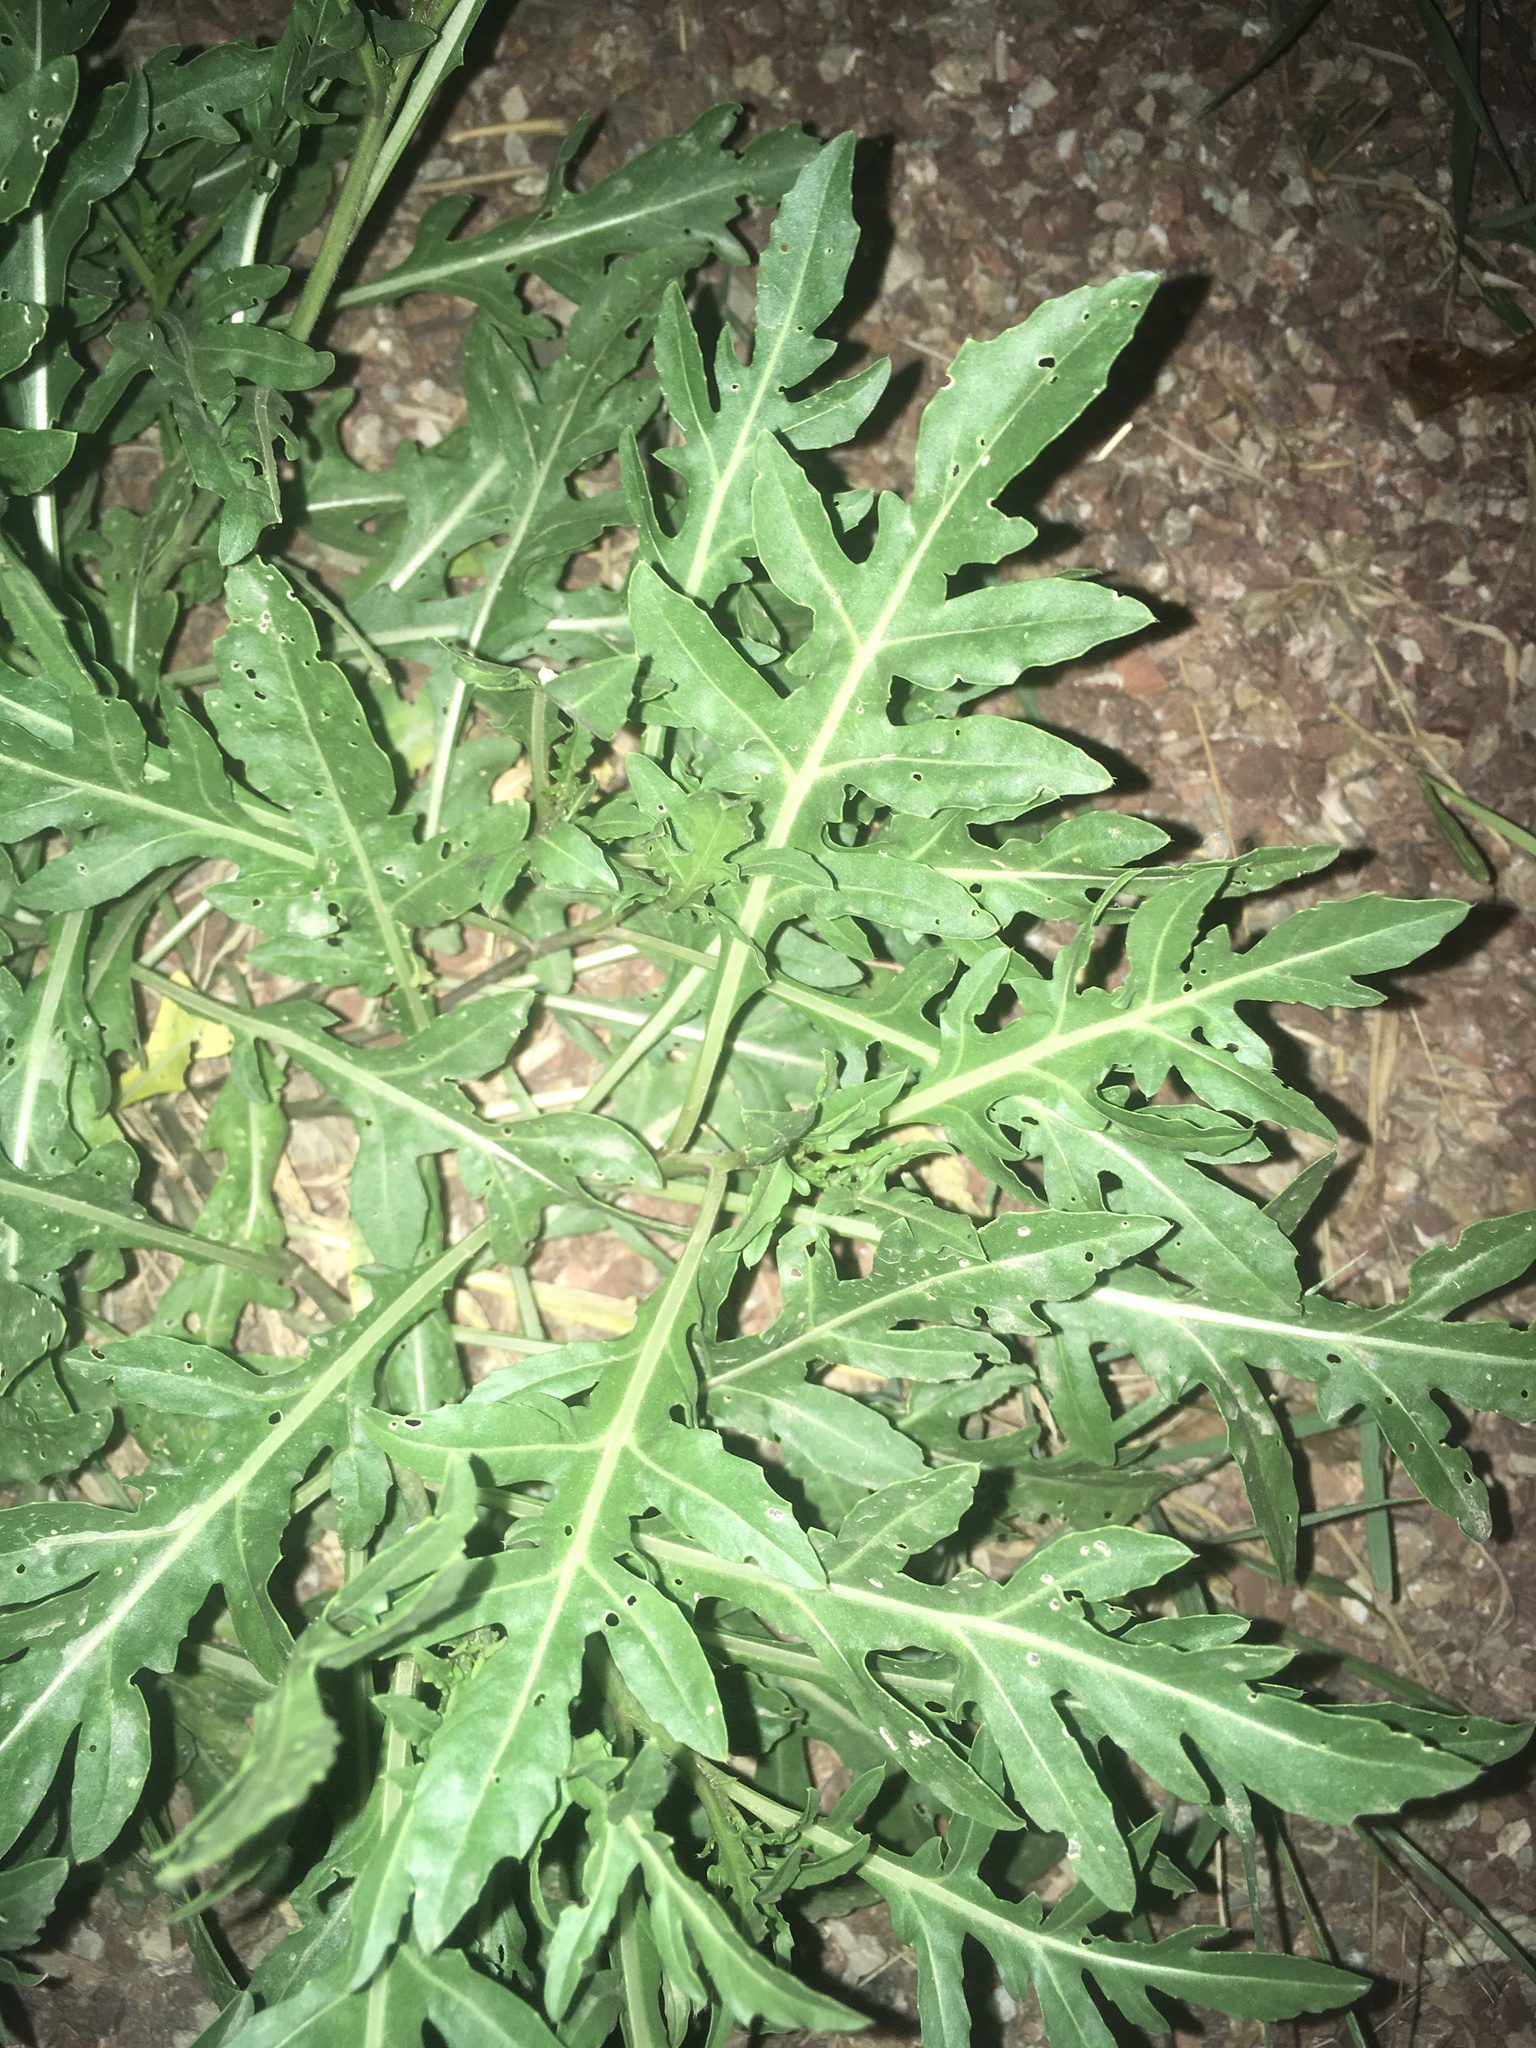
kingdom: Plantae
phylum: Tracheophyta
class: Magnoliopsida
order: Brassicales
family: Brassicaceae
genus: Diplotaxis
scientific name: Diplotaxis tenuifolia
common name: Perennial wall-rocket
